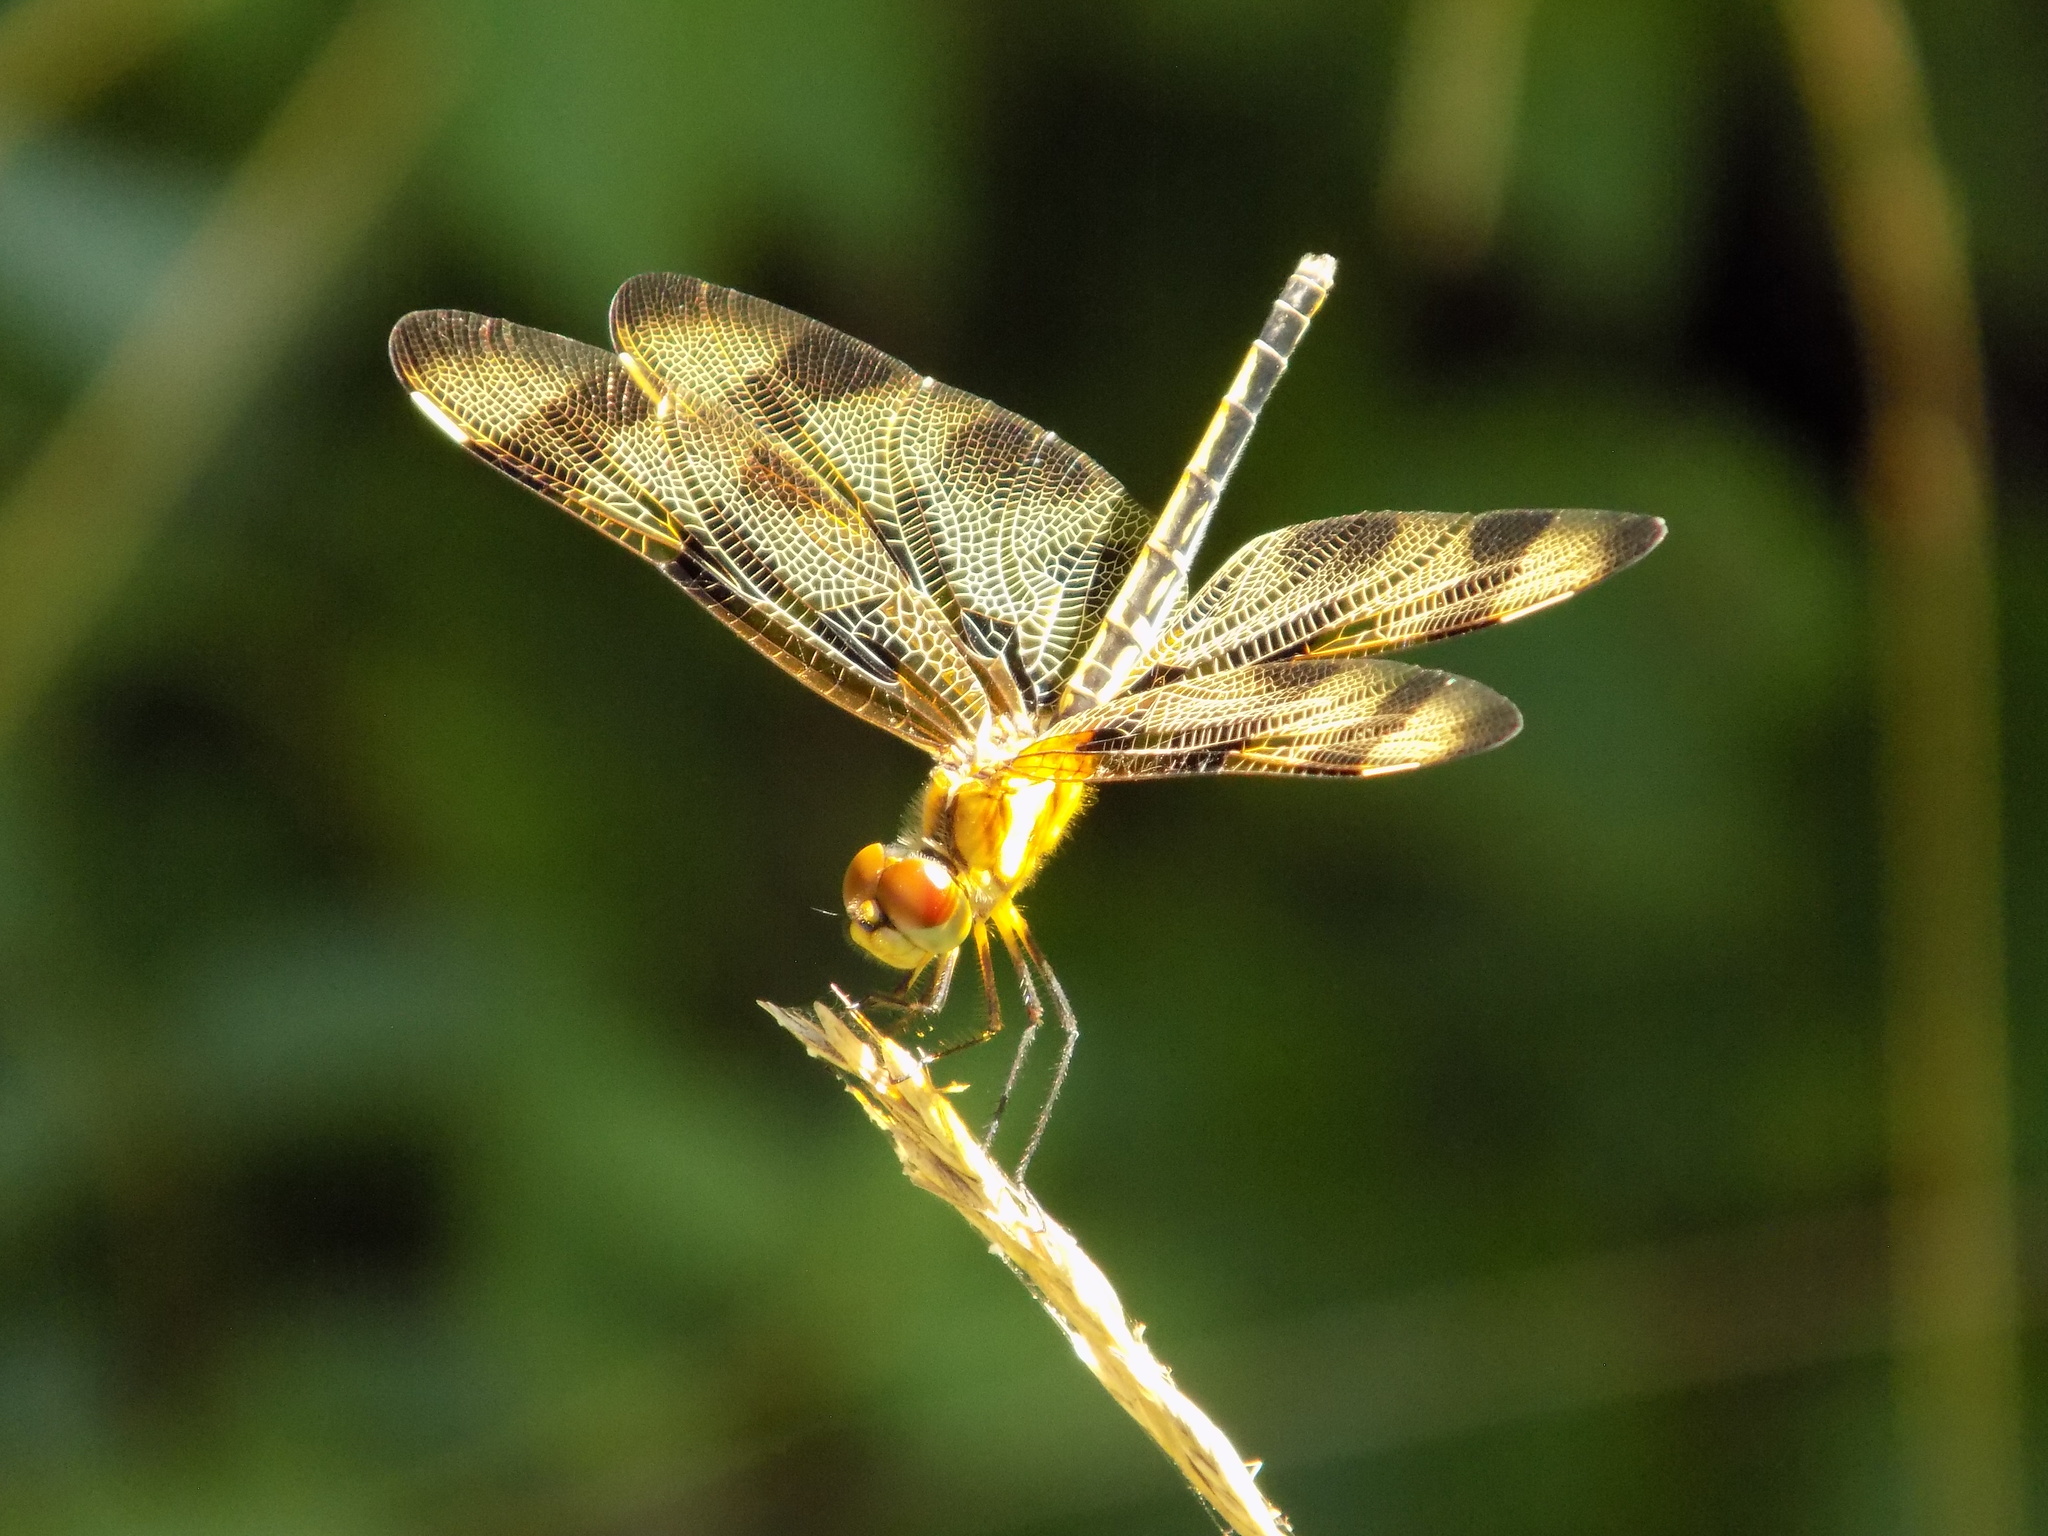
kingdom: Animalia
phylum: Arthropoda
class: Insecta
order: Odonata
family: Libellulidae
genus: Celithemis
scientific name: Celithemis eponina
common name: Halloween pennant
